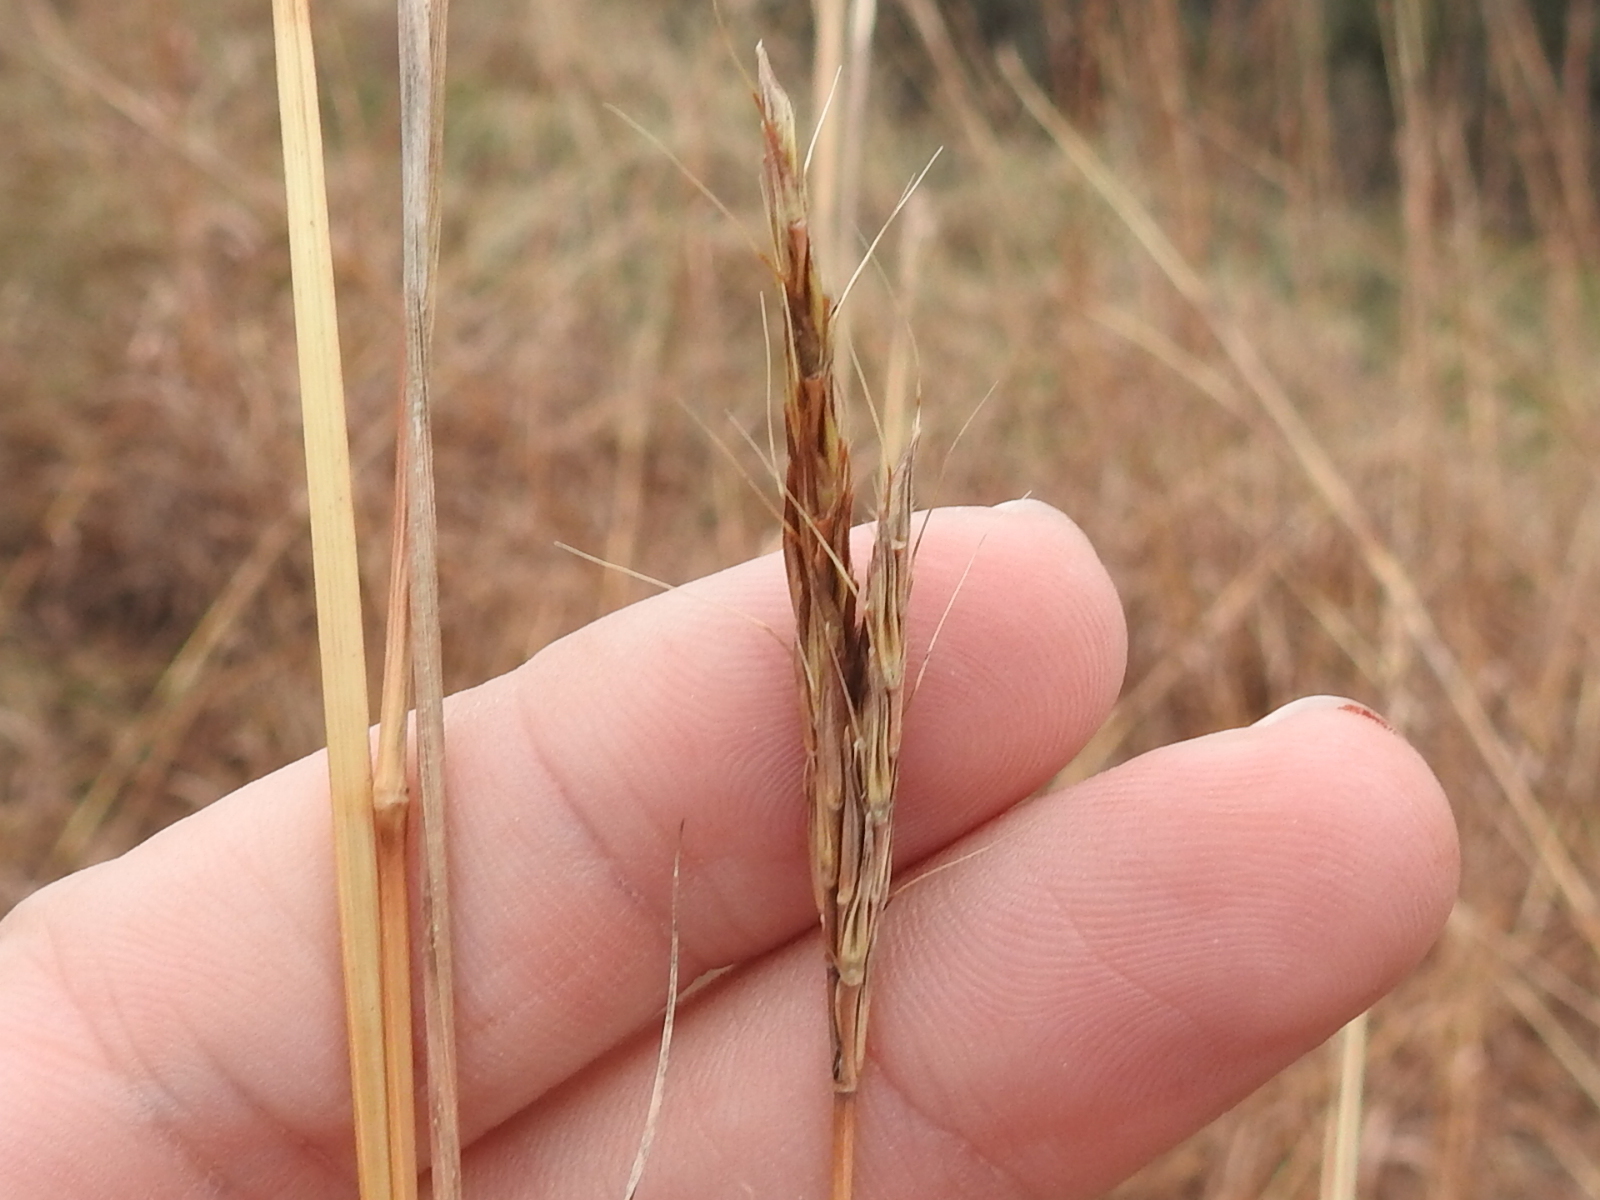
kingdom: Plantae
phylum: Tracheophyta
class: Liliopsida
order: Poales
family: Poaceae
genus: Andropogon
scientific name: Andropogon gerardi
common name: Big bluestem
